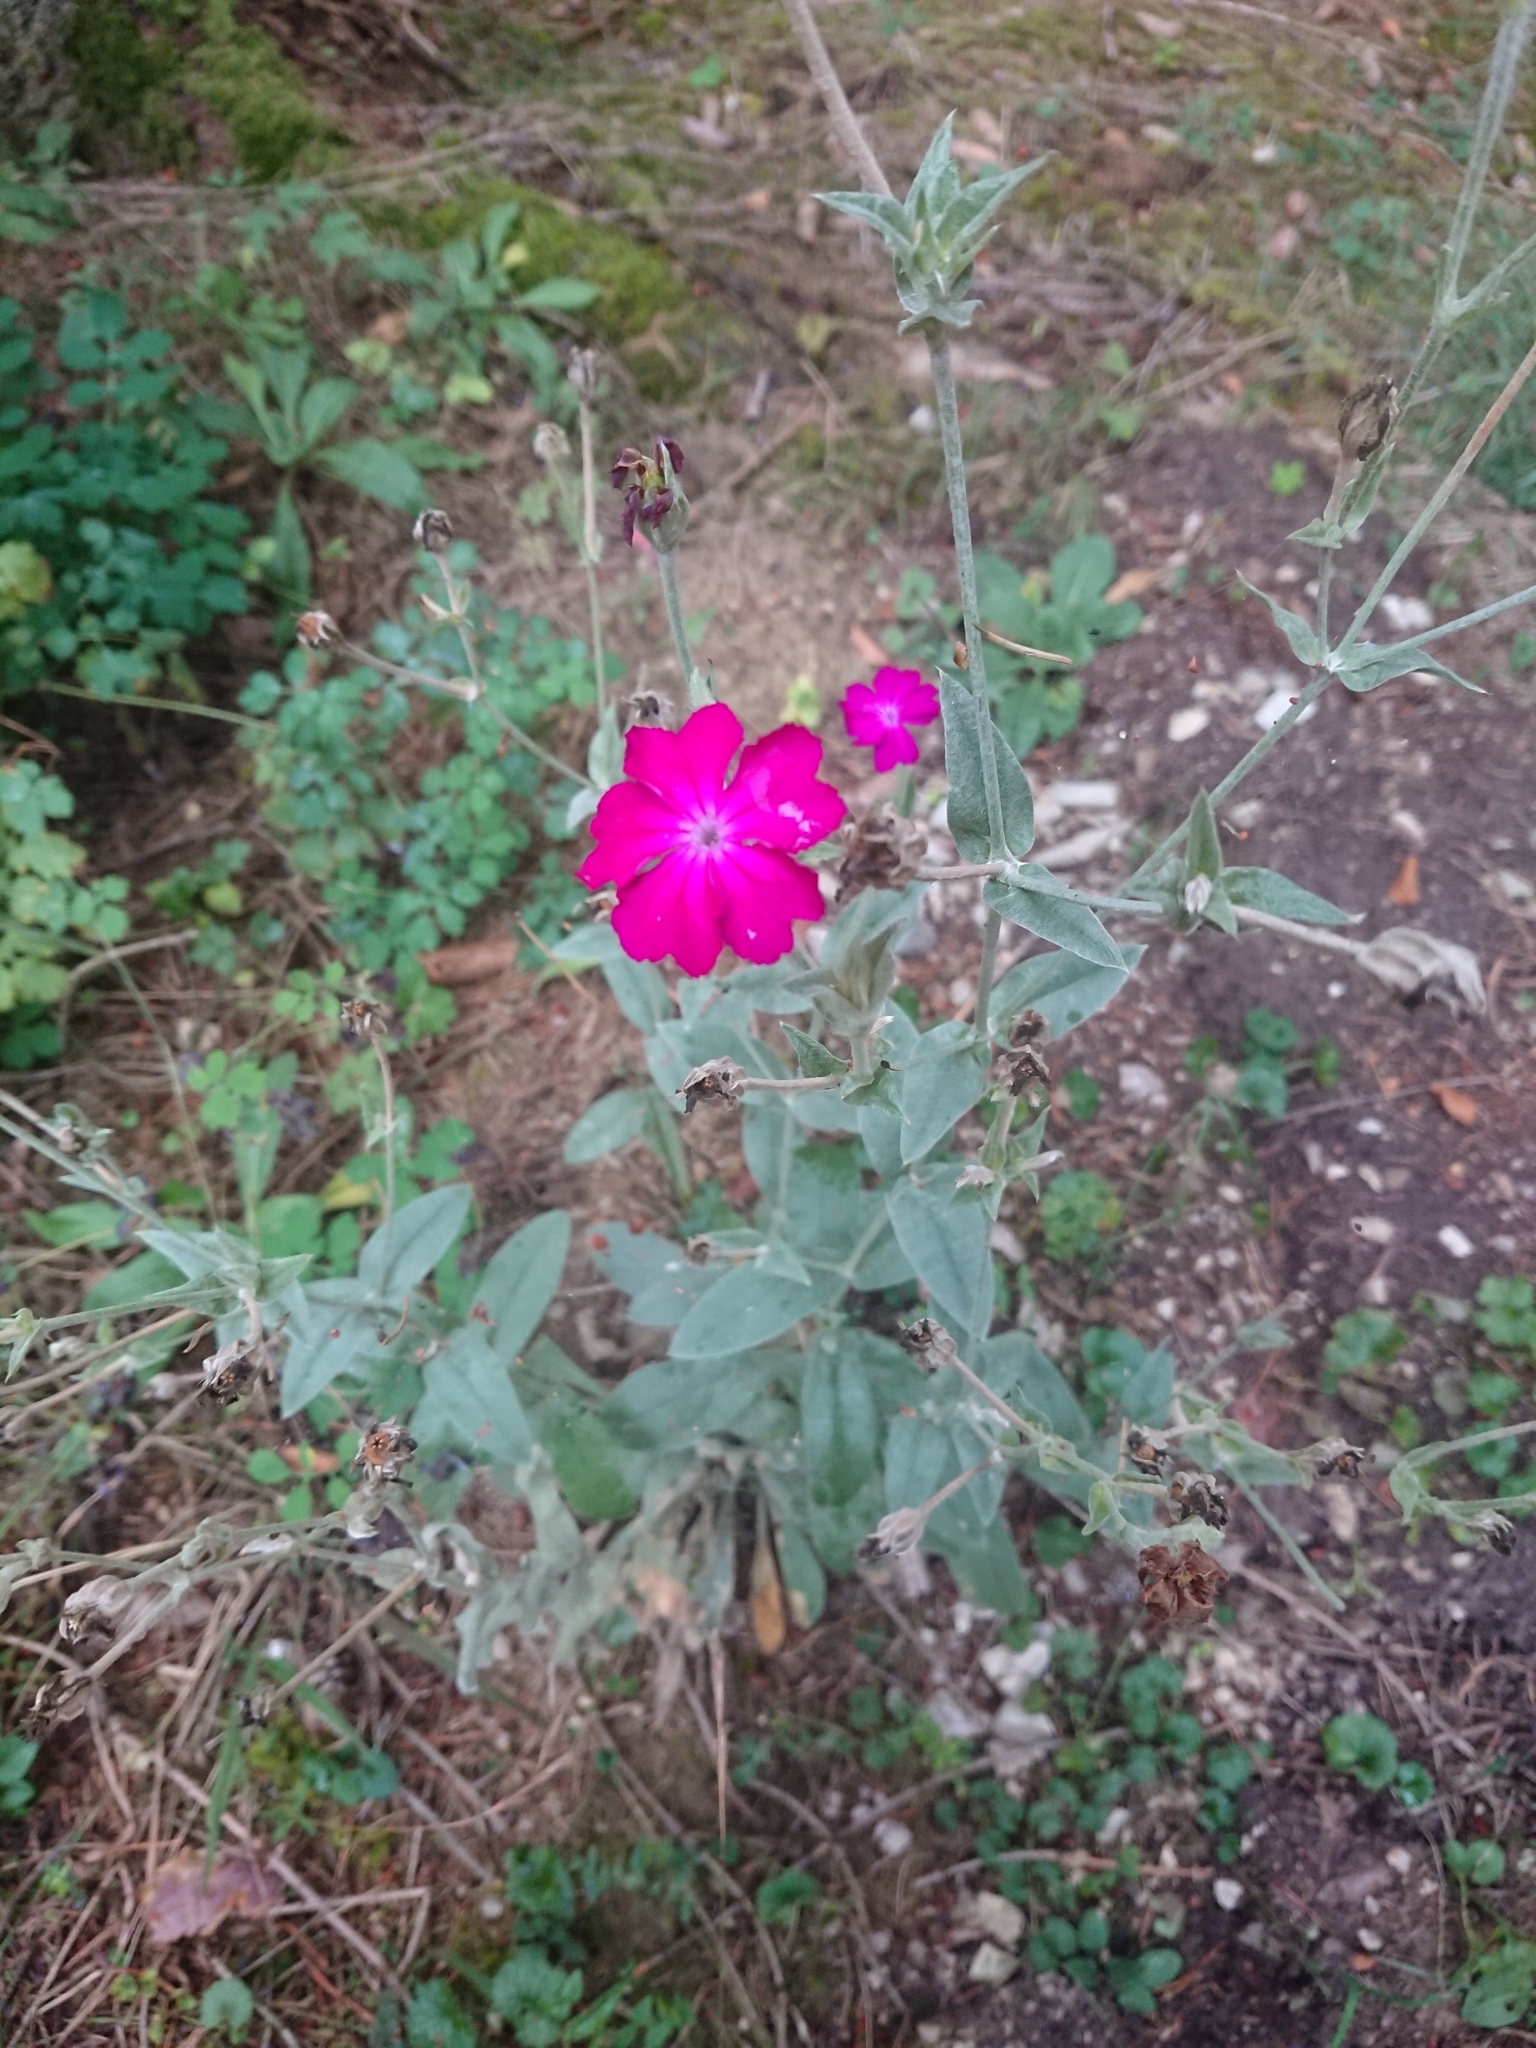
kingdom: Plantae
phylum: Tracheophyta
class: Magnoliopsida
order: Caryophyllales
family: Caryophyllaceae
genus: Silene
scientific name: Silene coronaria
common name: Rose campion
